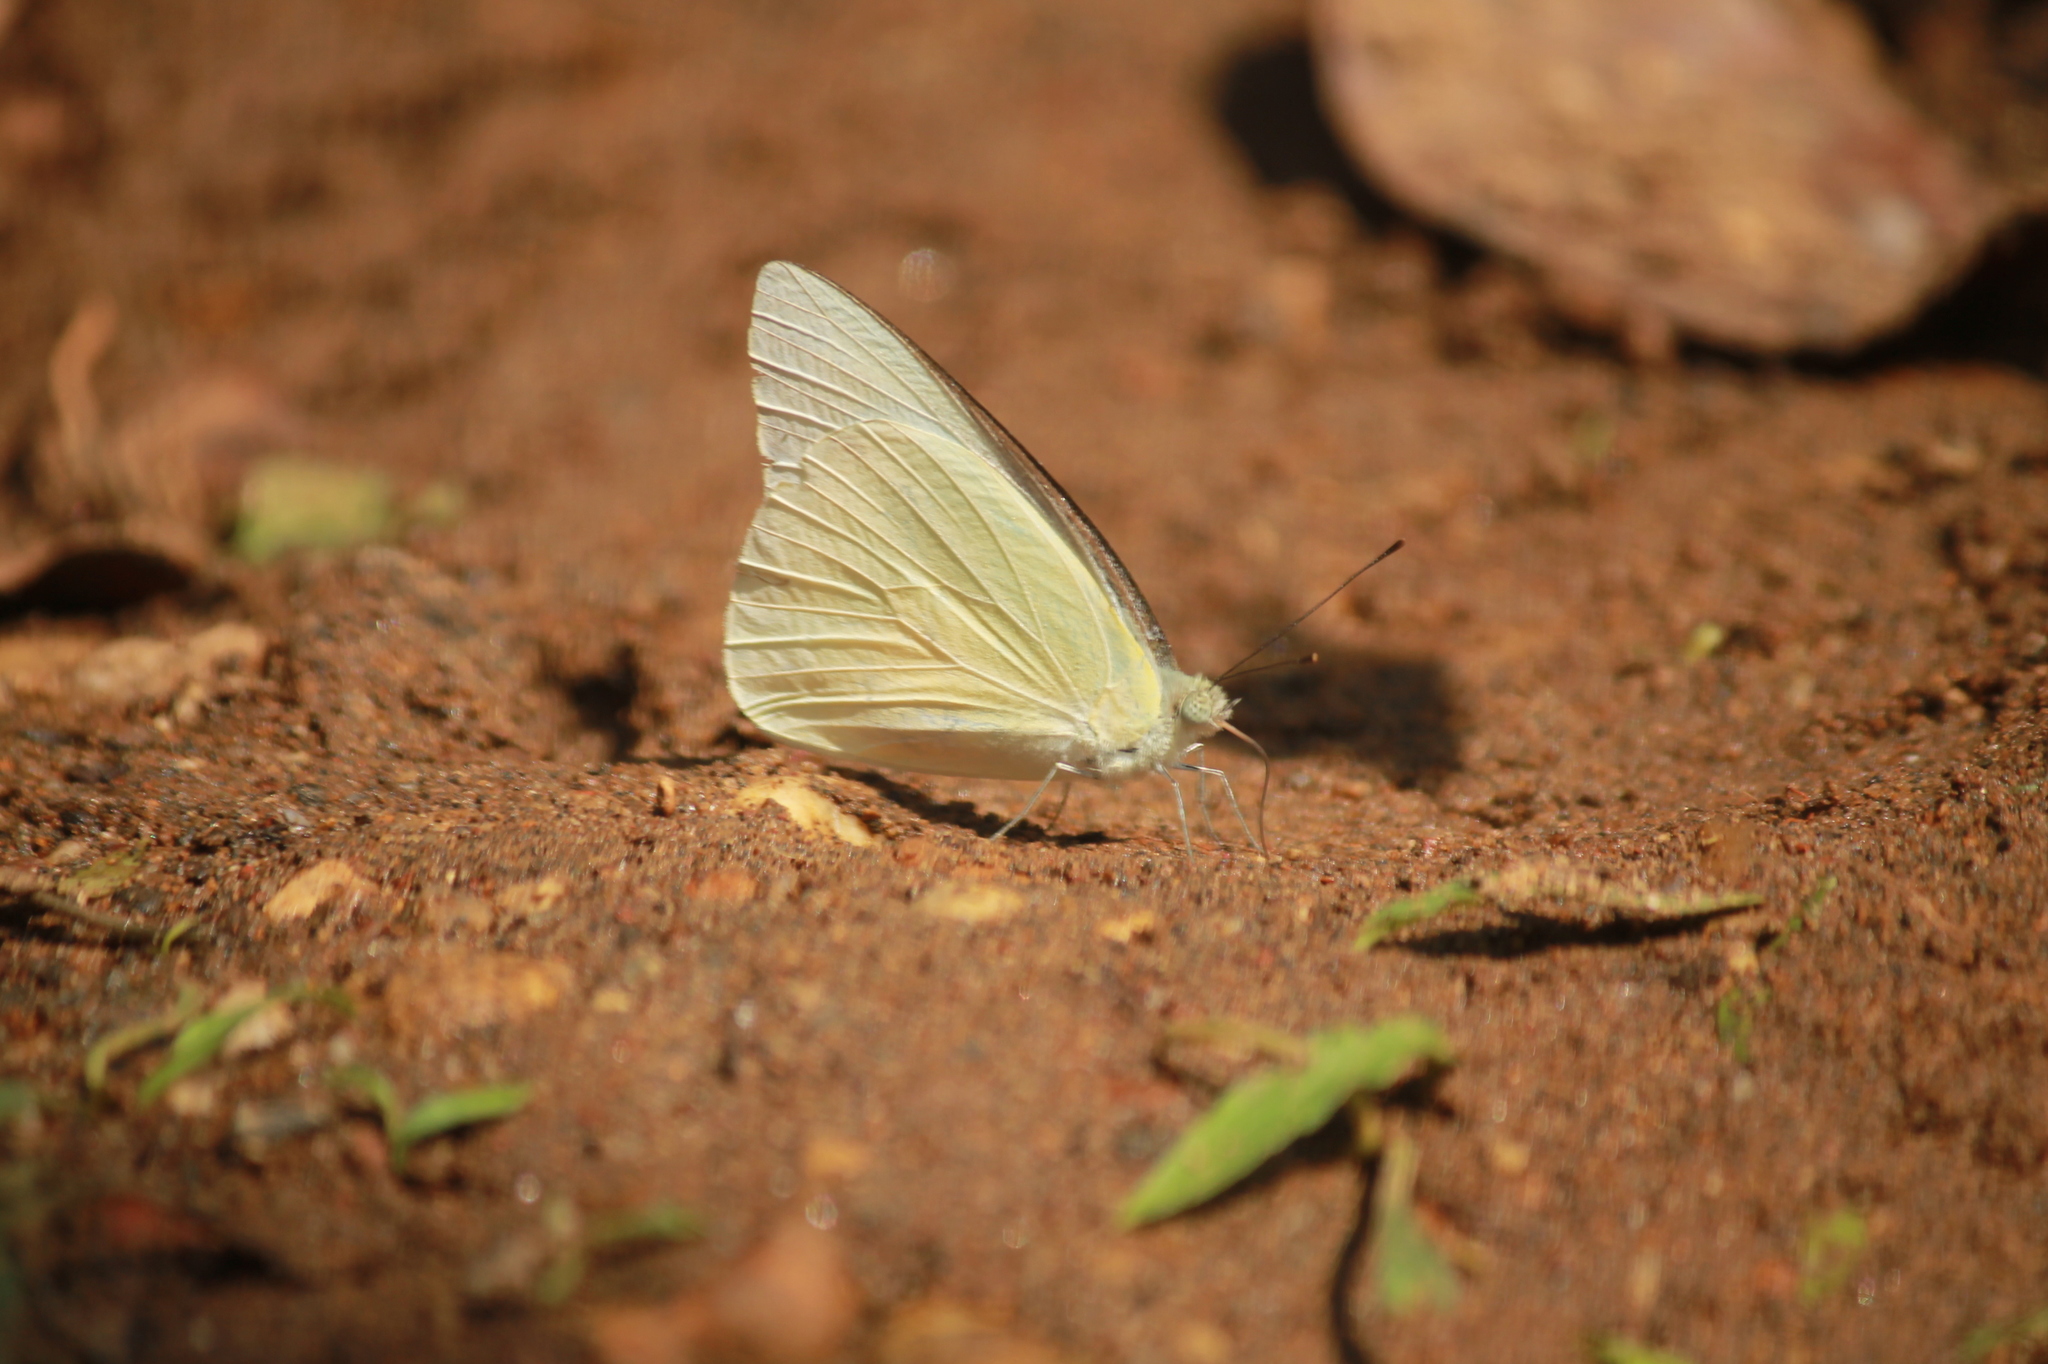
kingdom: Animalia
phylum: Arthropoda
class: Insecta
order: Lepidoptera
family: Pieridae
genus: Appias
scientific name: Appias albina
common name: Common albatross
